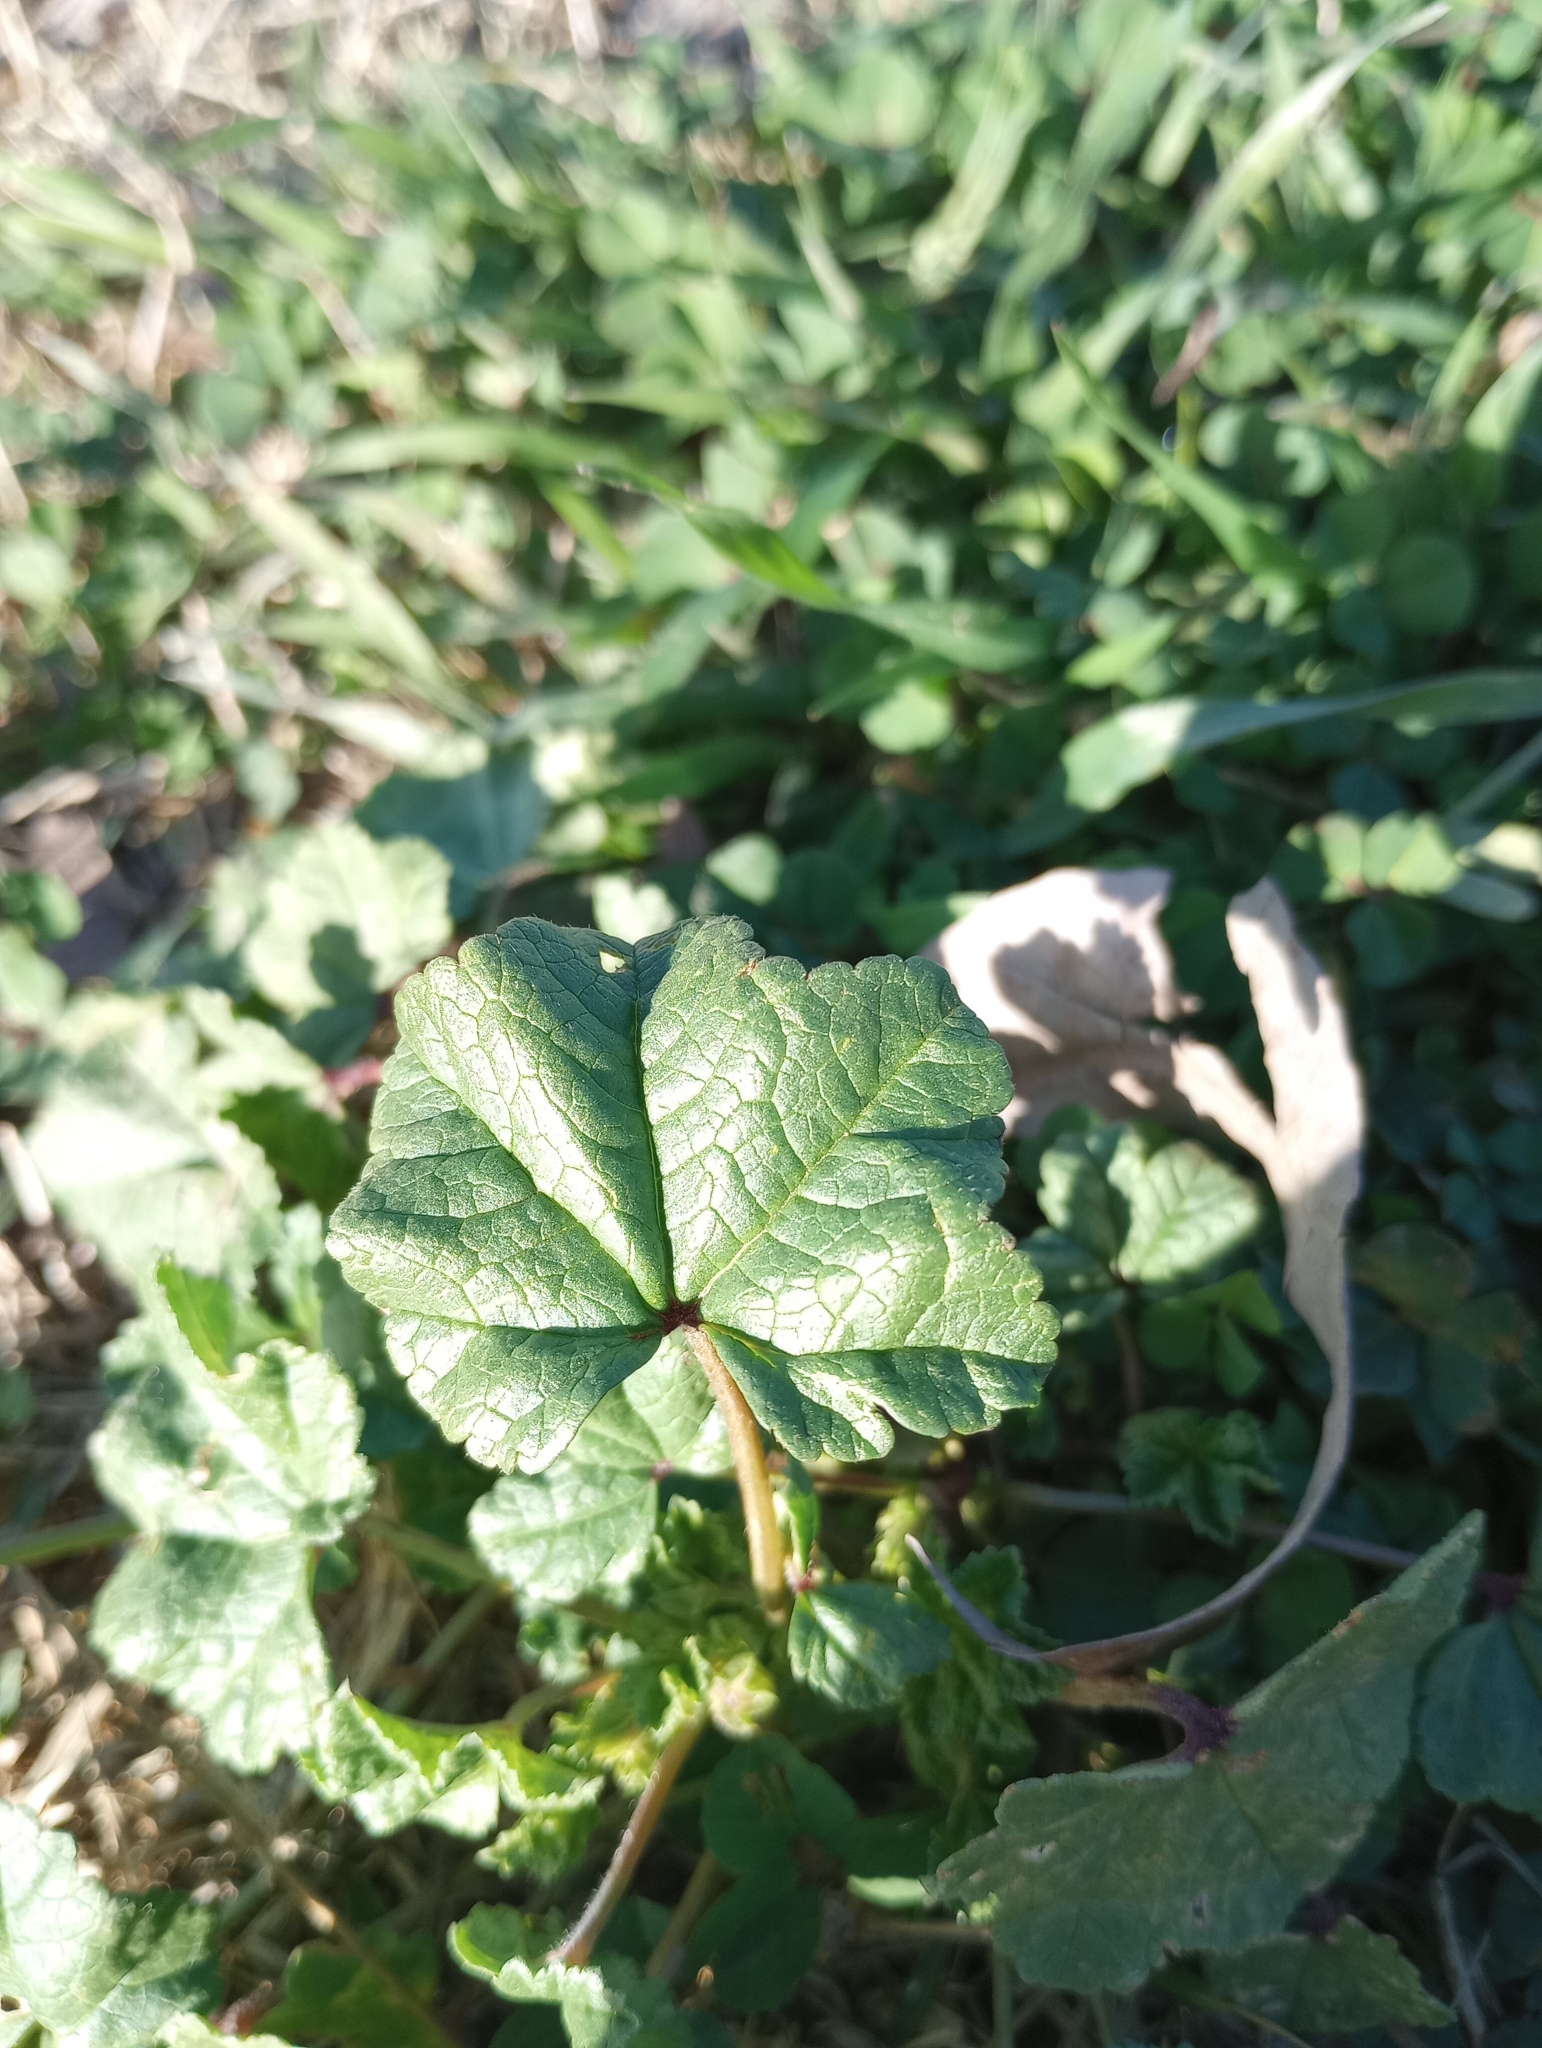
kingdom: Plantae
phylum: Tracheophyta
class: Magnoliopsida
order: Malvales
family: Malvaceae
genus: Malva
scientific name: Malva parviflora
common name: Least mallow
